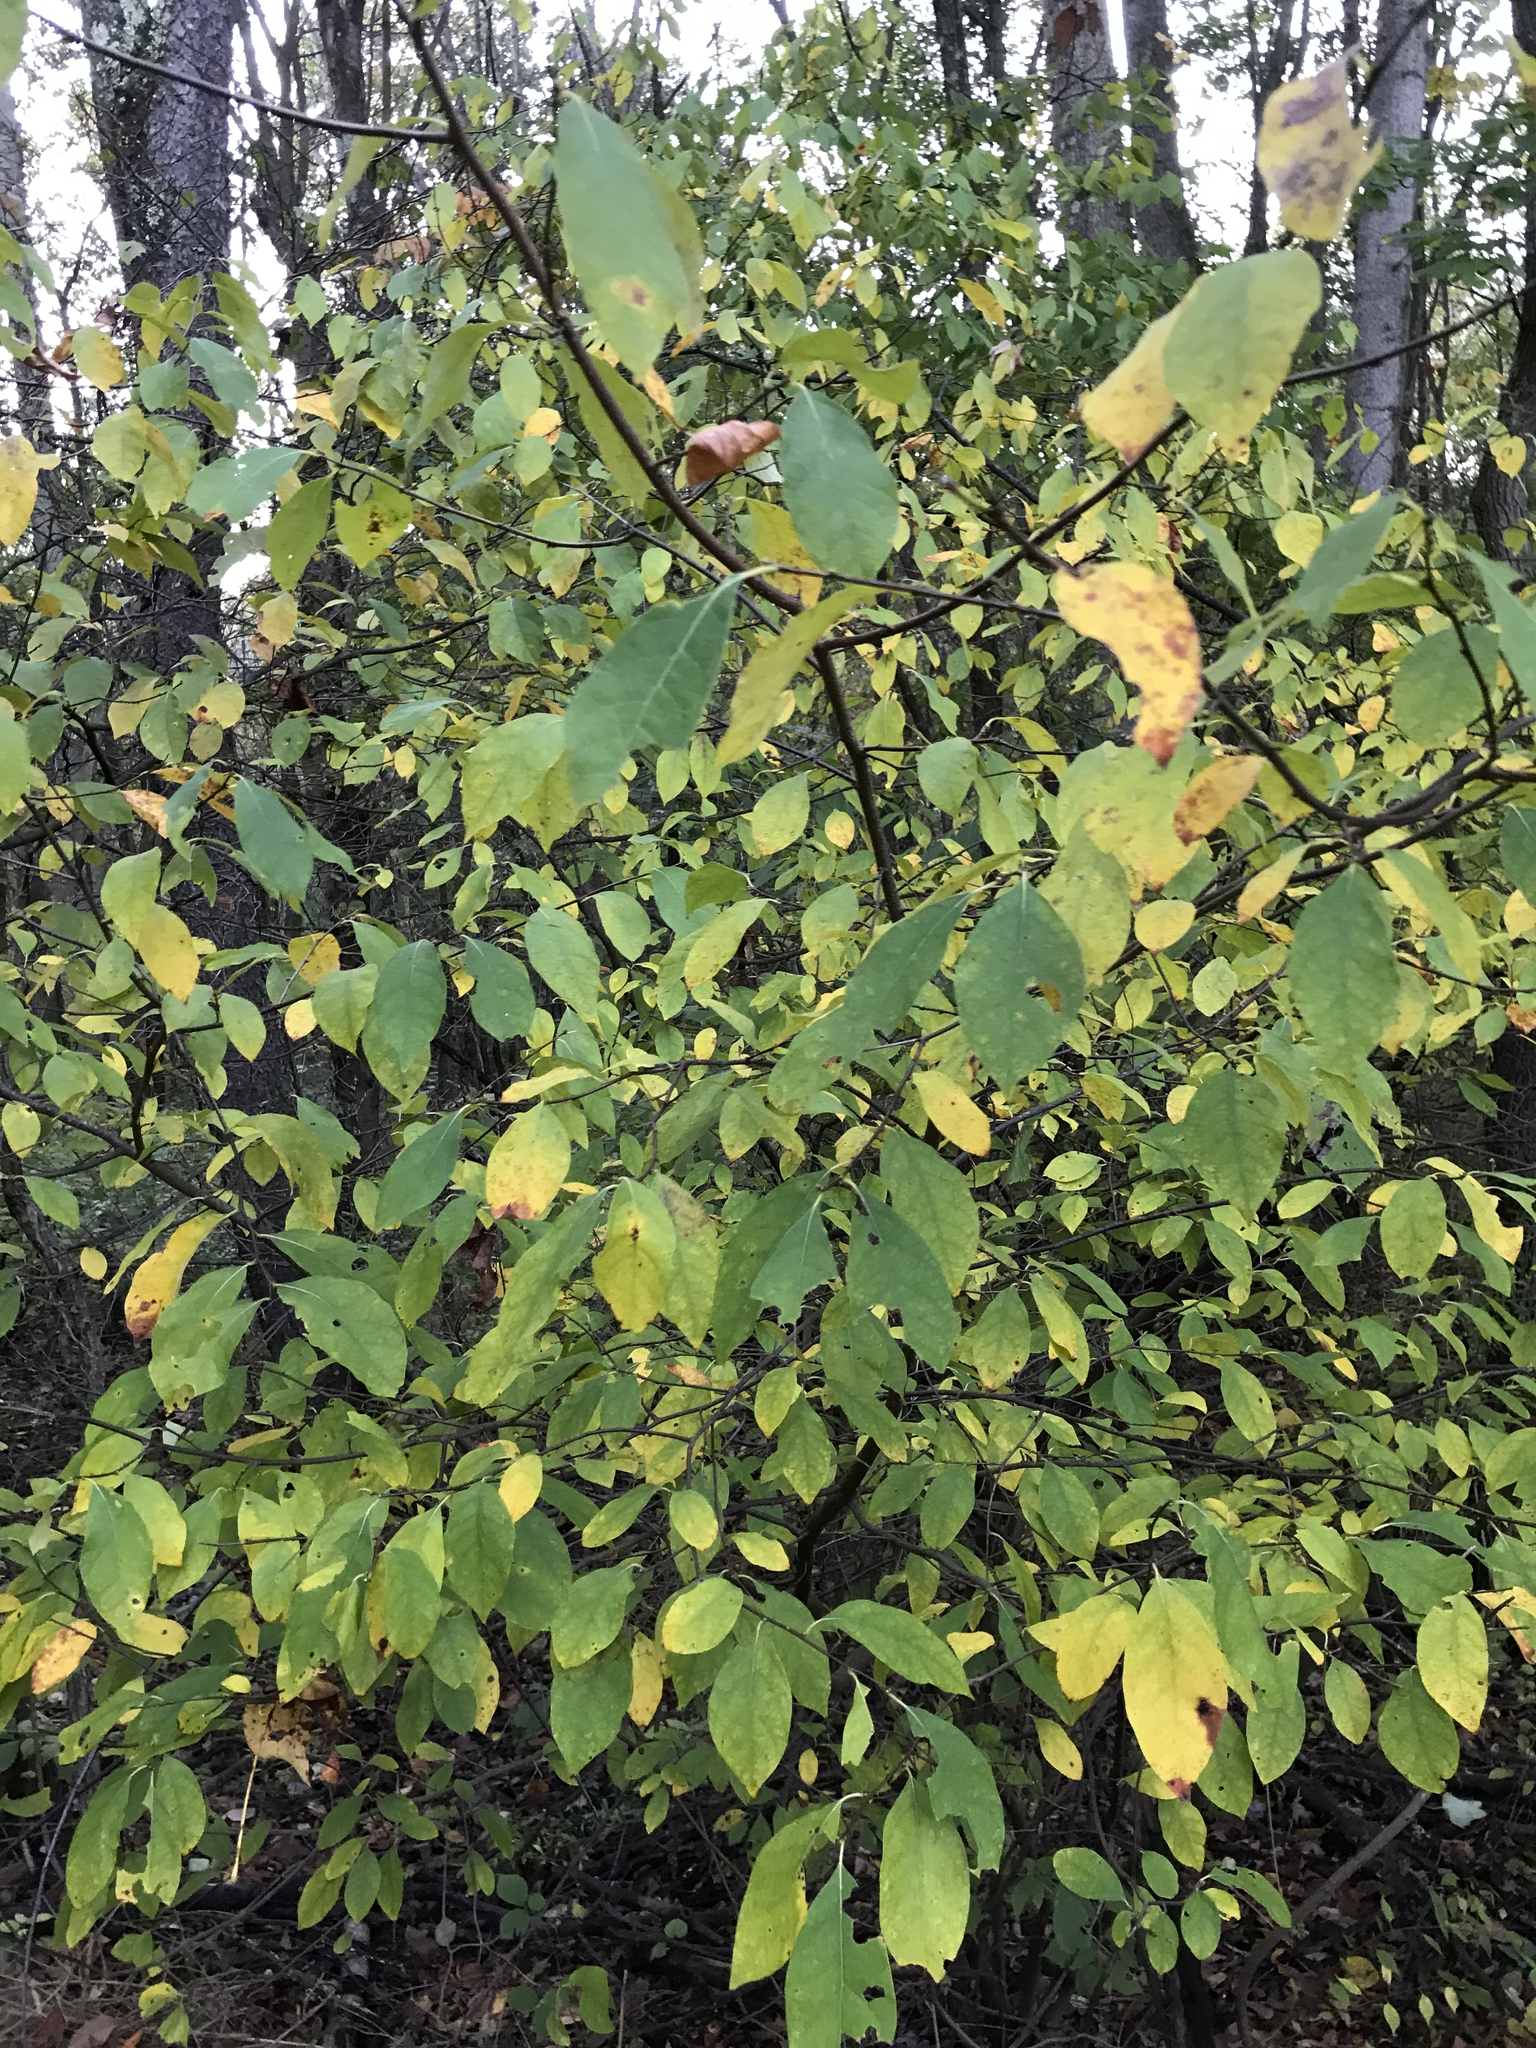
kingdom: Plantae
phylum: Tracheophyta
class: Magnoliopsida
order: Laurales
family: Lauraceae
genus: Lindera
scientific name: Lindera benzoin
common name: Spicebush
